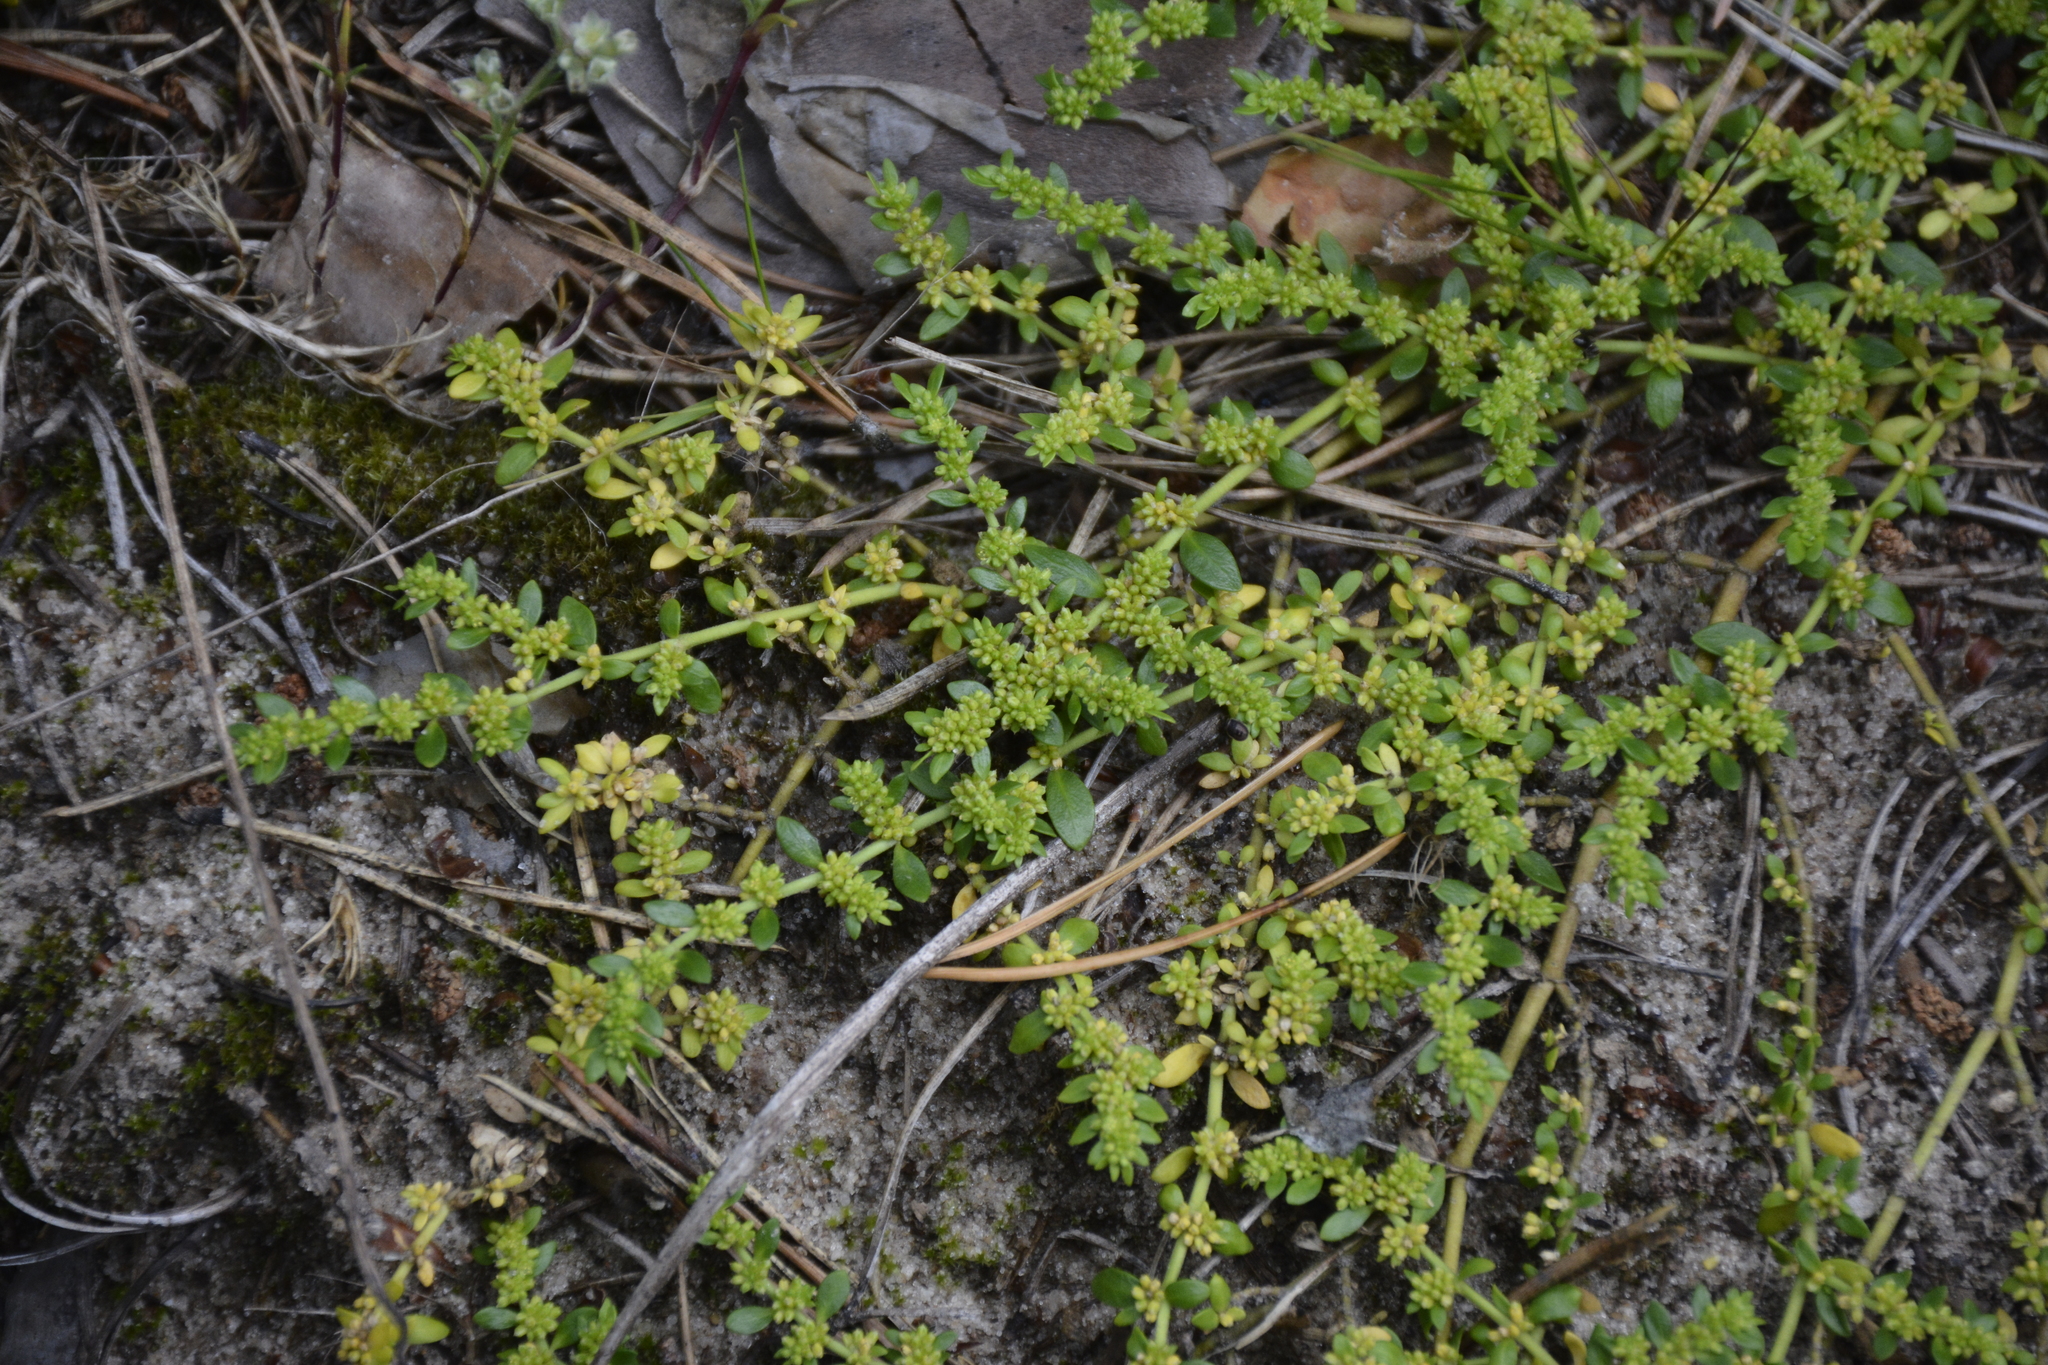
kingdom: Plantae
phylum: Tracheophyta
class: Magnoliopsida
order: Caryophyllales
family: Caryophyllaceae
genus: Herniaria
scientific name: Herniaria glabra
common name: Smooth rupturewort
